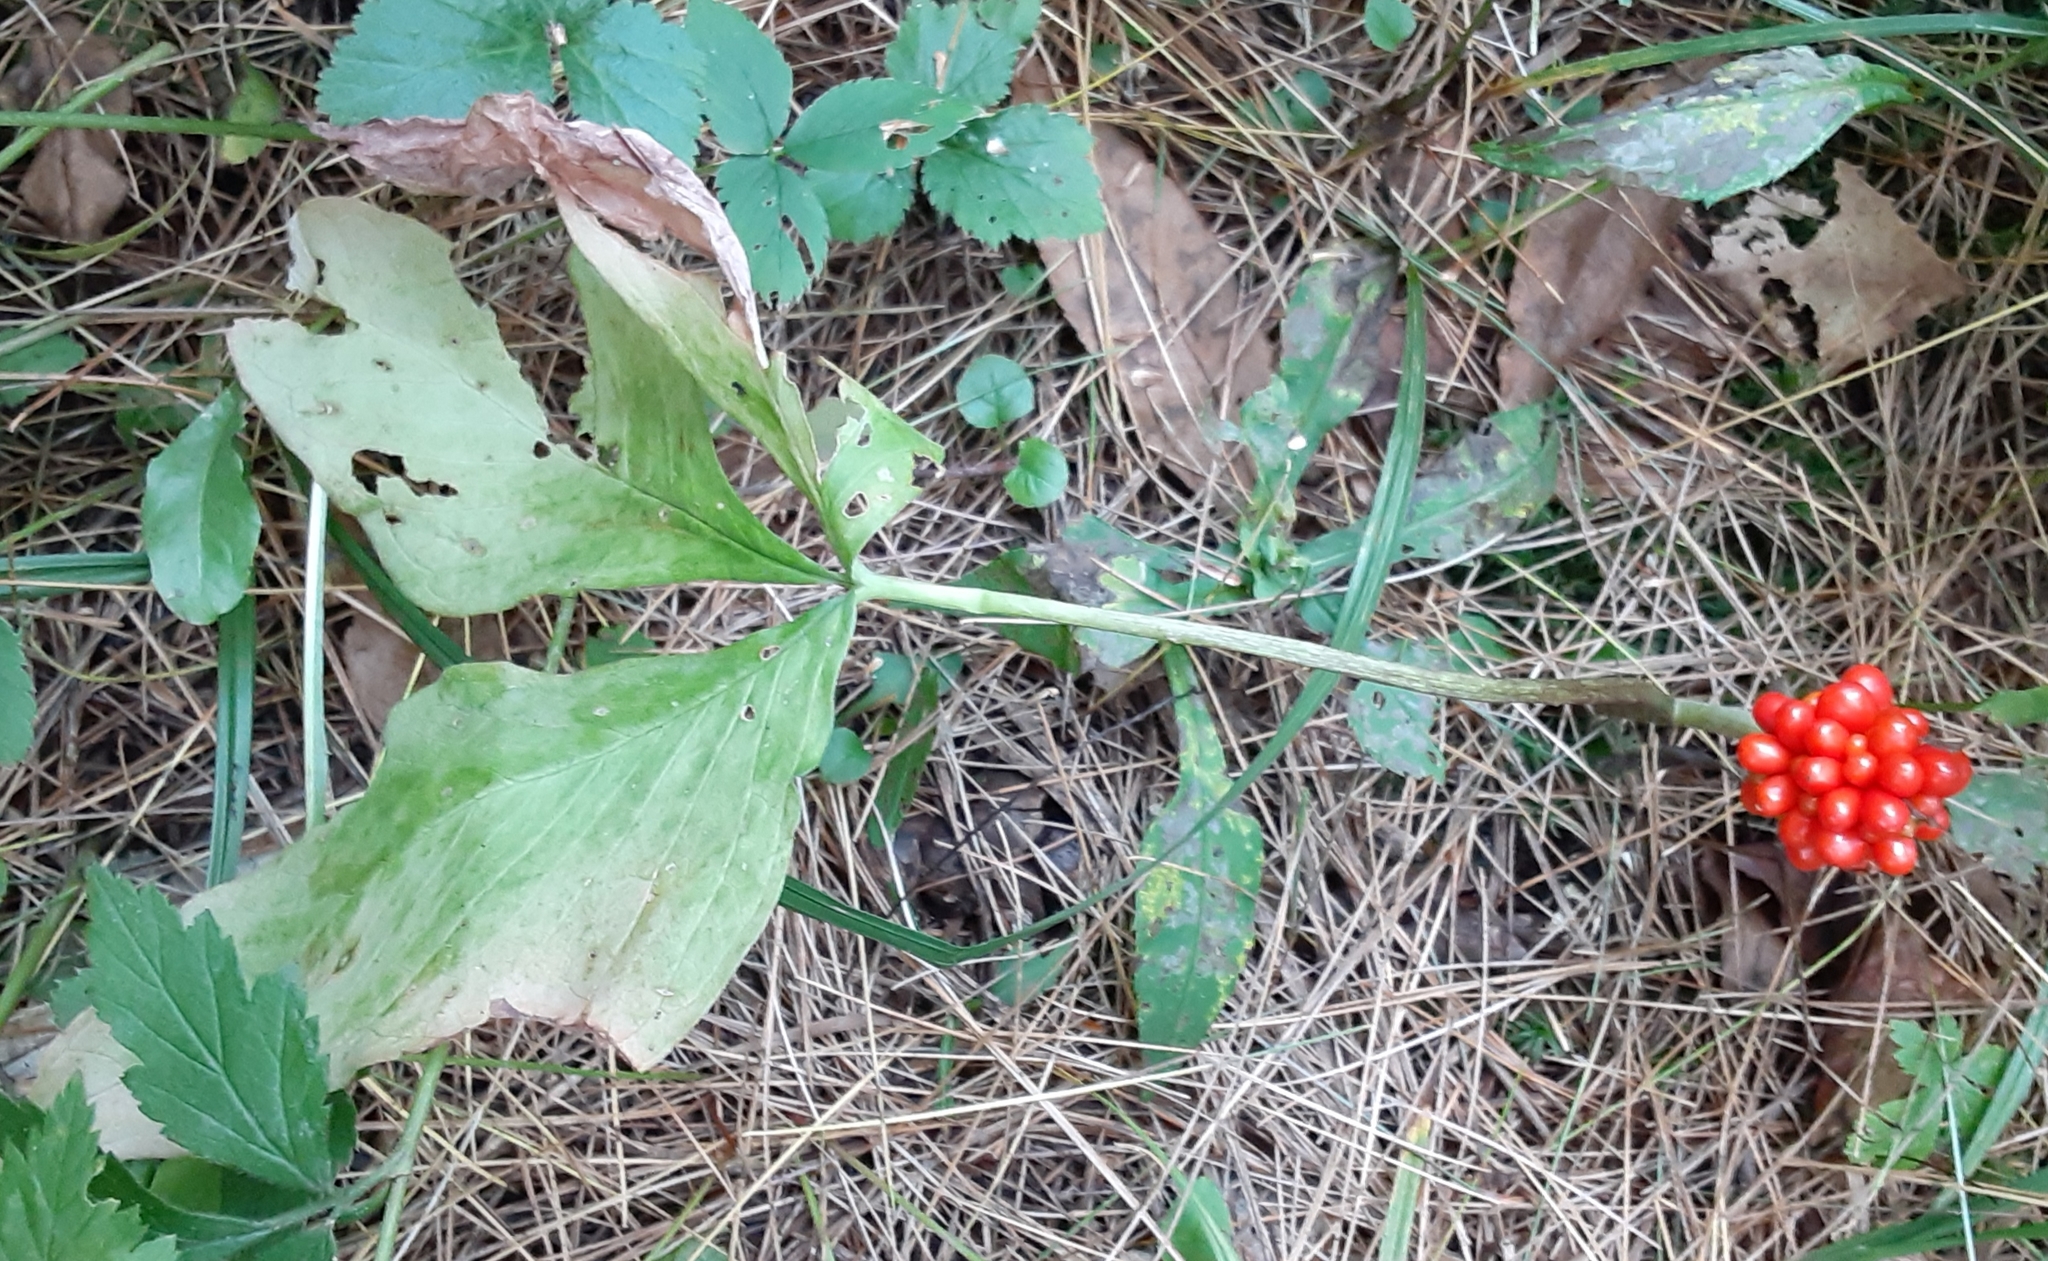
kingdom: Plantae
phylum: Tracheophyta
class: Liliopsida
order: Alismatales
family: Araceae
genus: Arisaema
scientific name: Arisaema triphyllum
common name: Jack-in-the-pulpit
